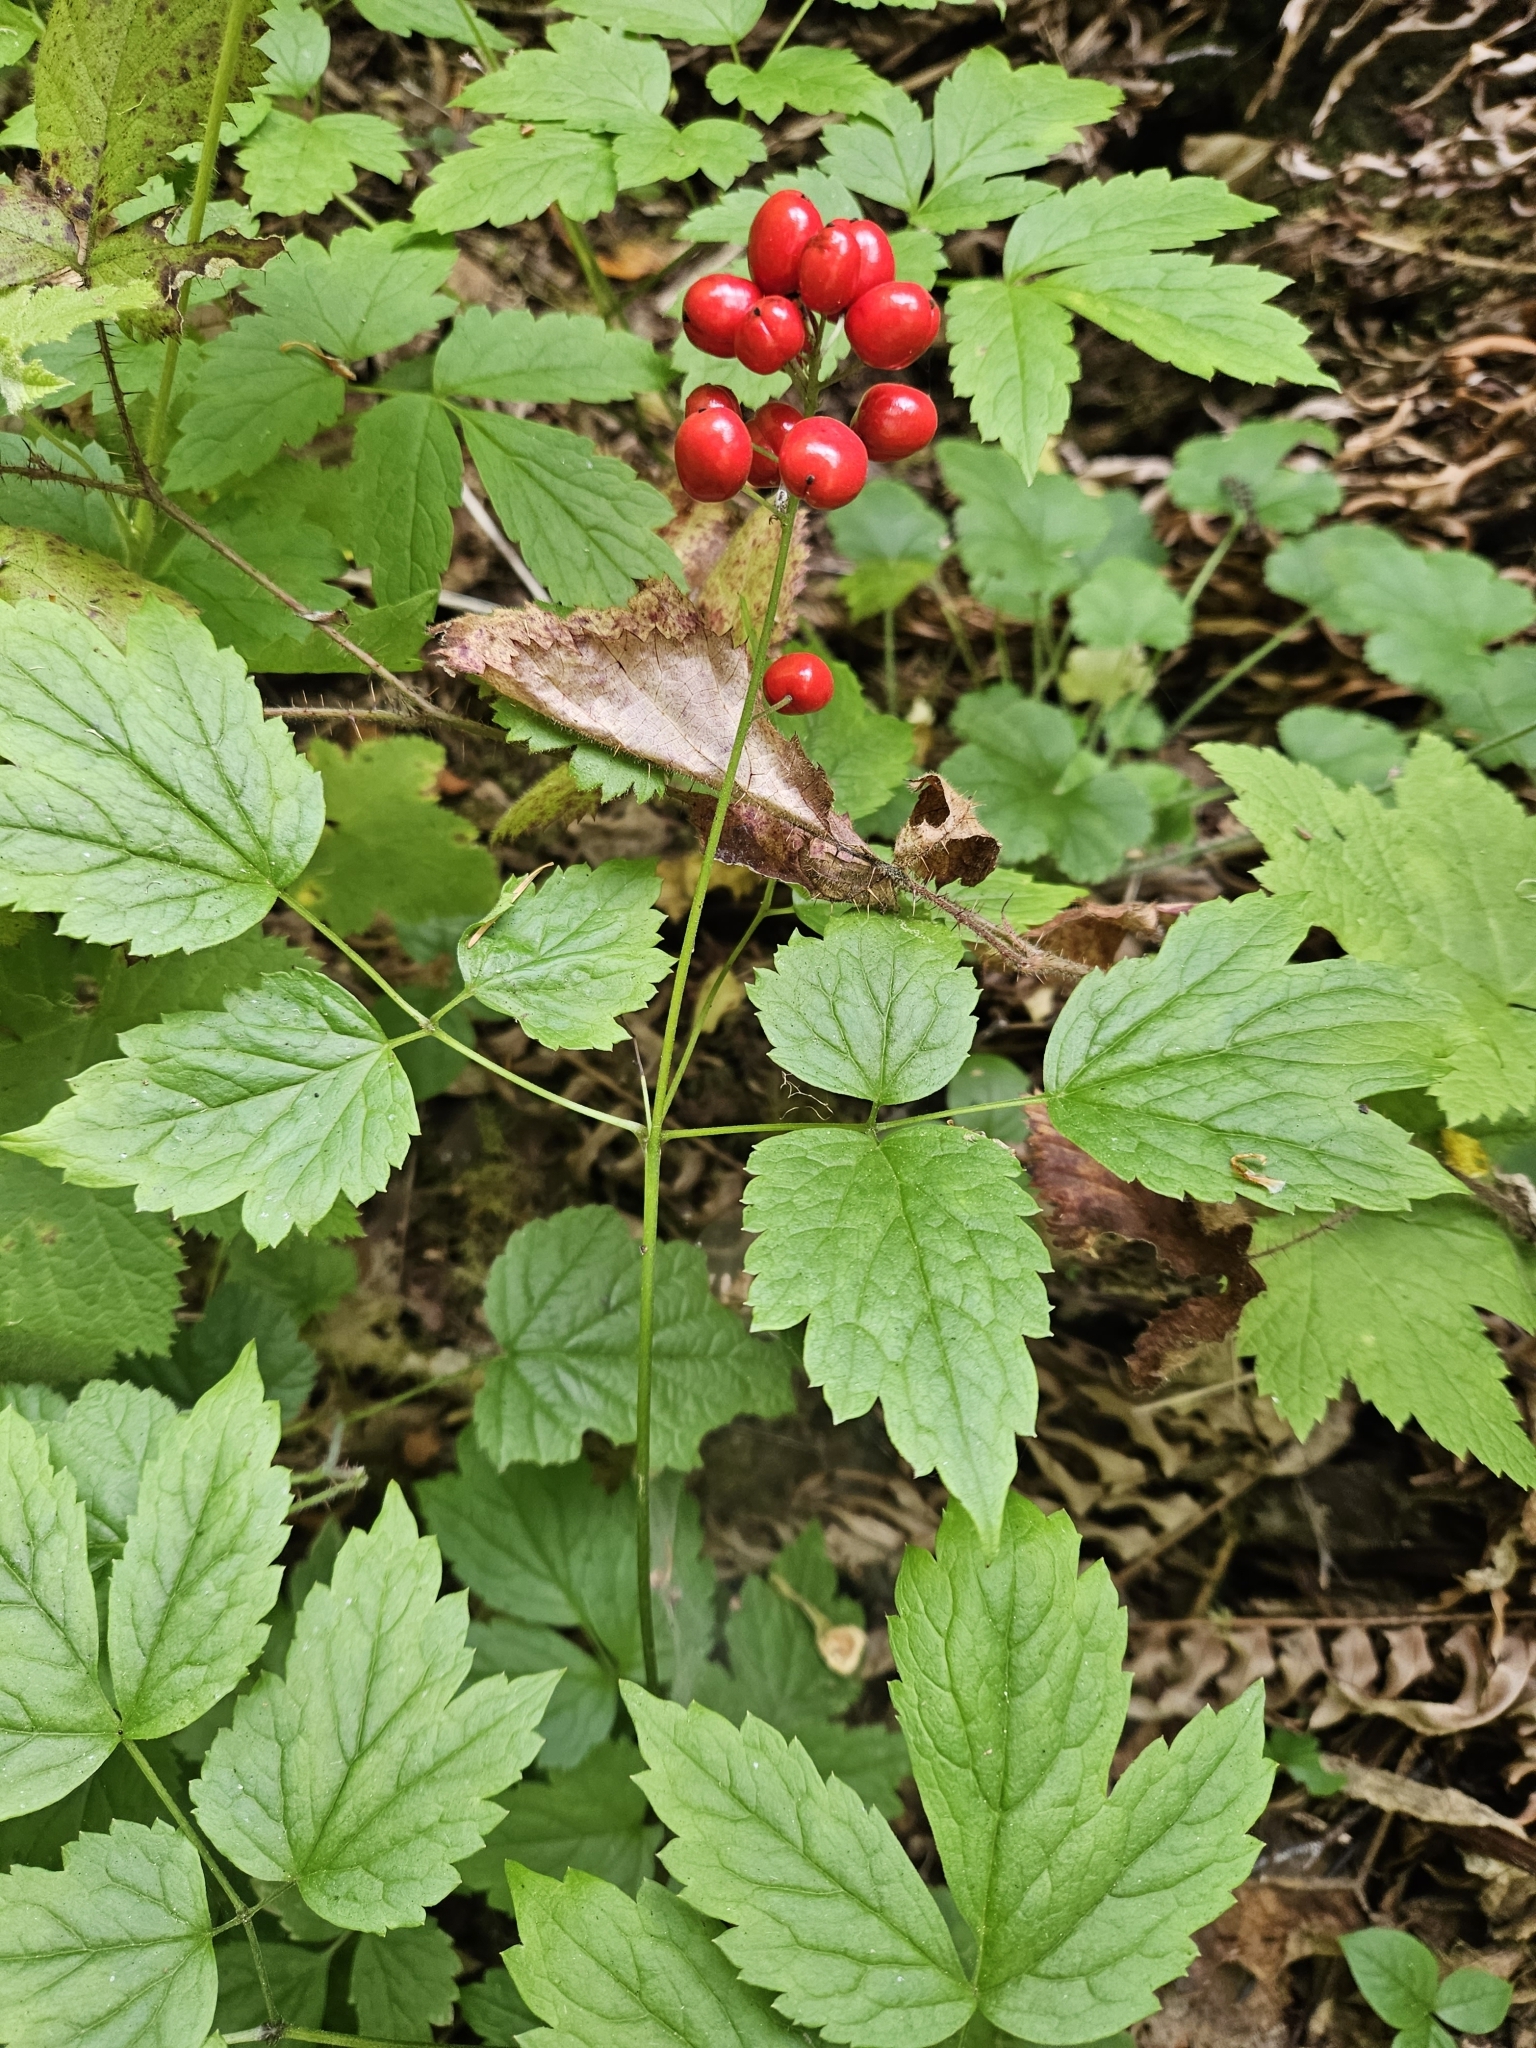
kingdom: Plantae
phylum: Tracheophyta
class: Magnoliopsida
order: Ranunculales
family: Ranunculaceae
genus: Actaea
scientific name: Actaea rubra
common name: Red baneberry
